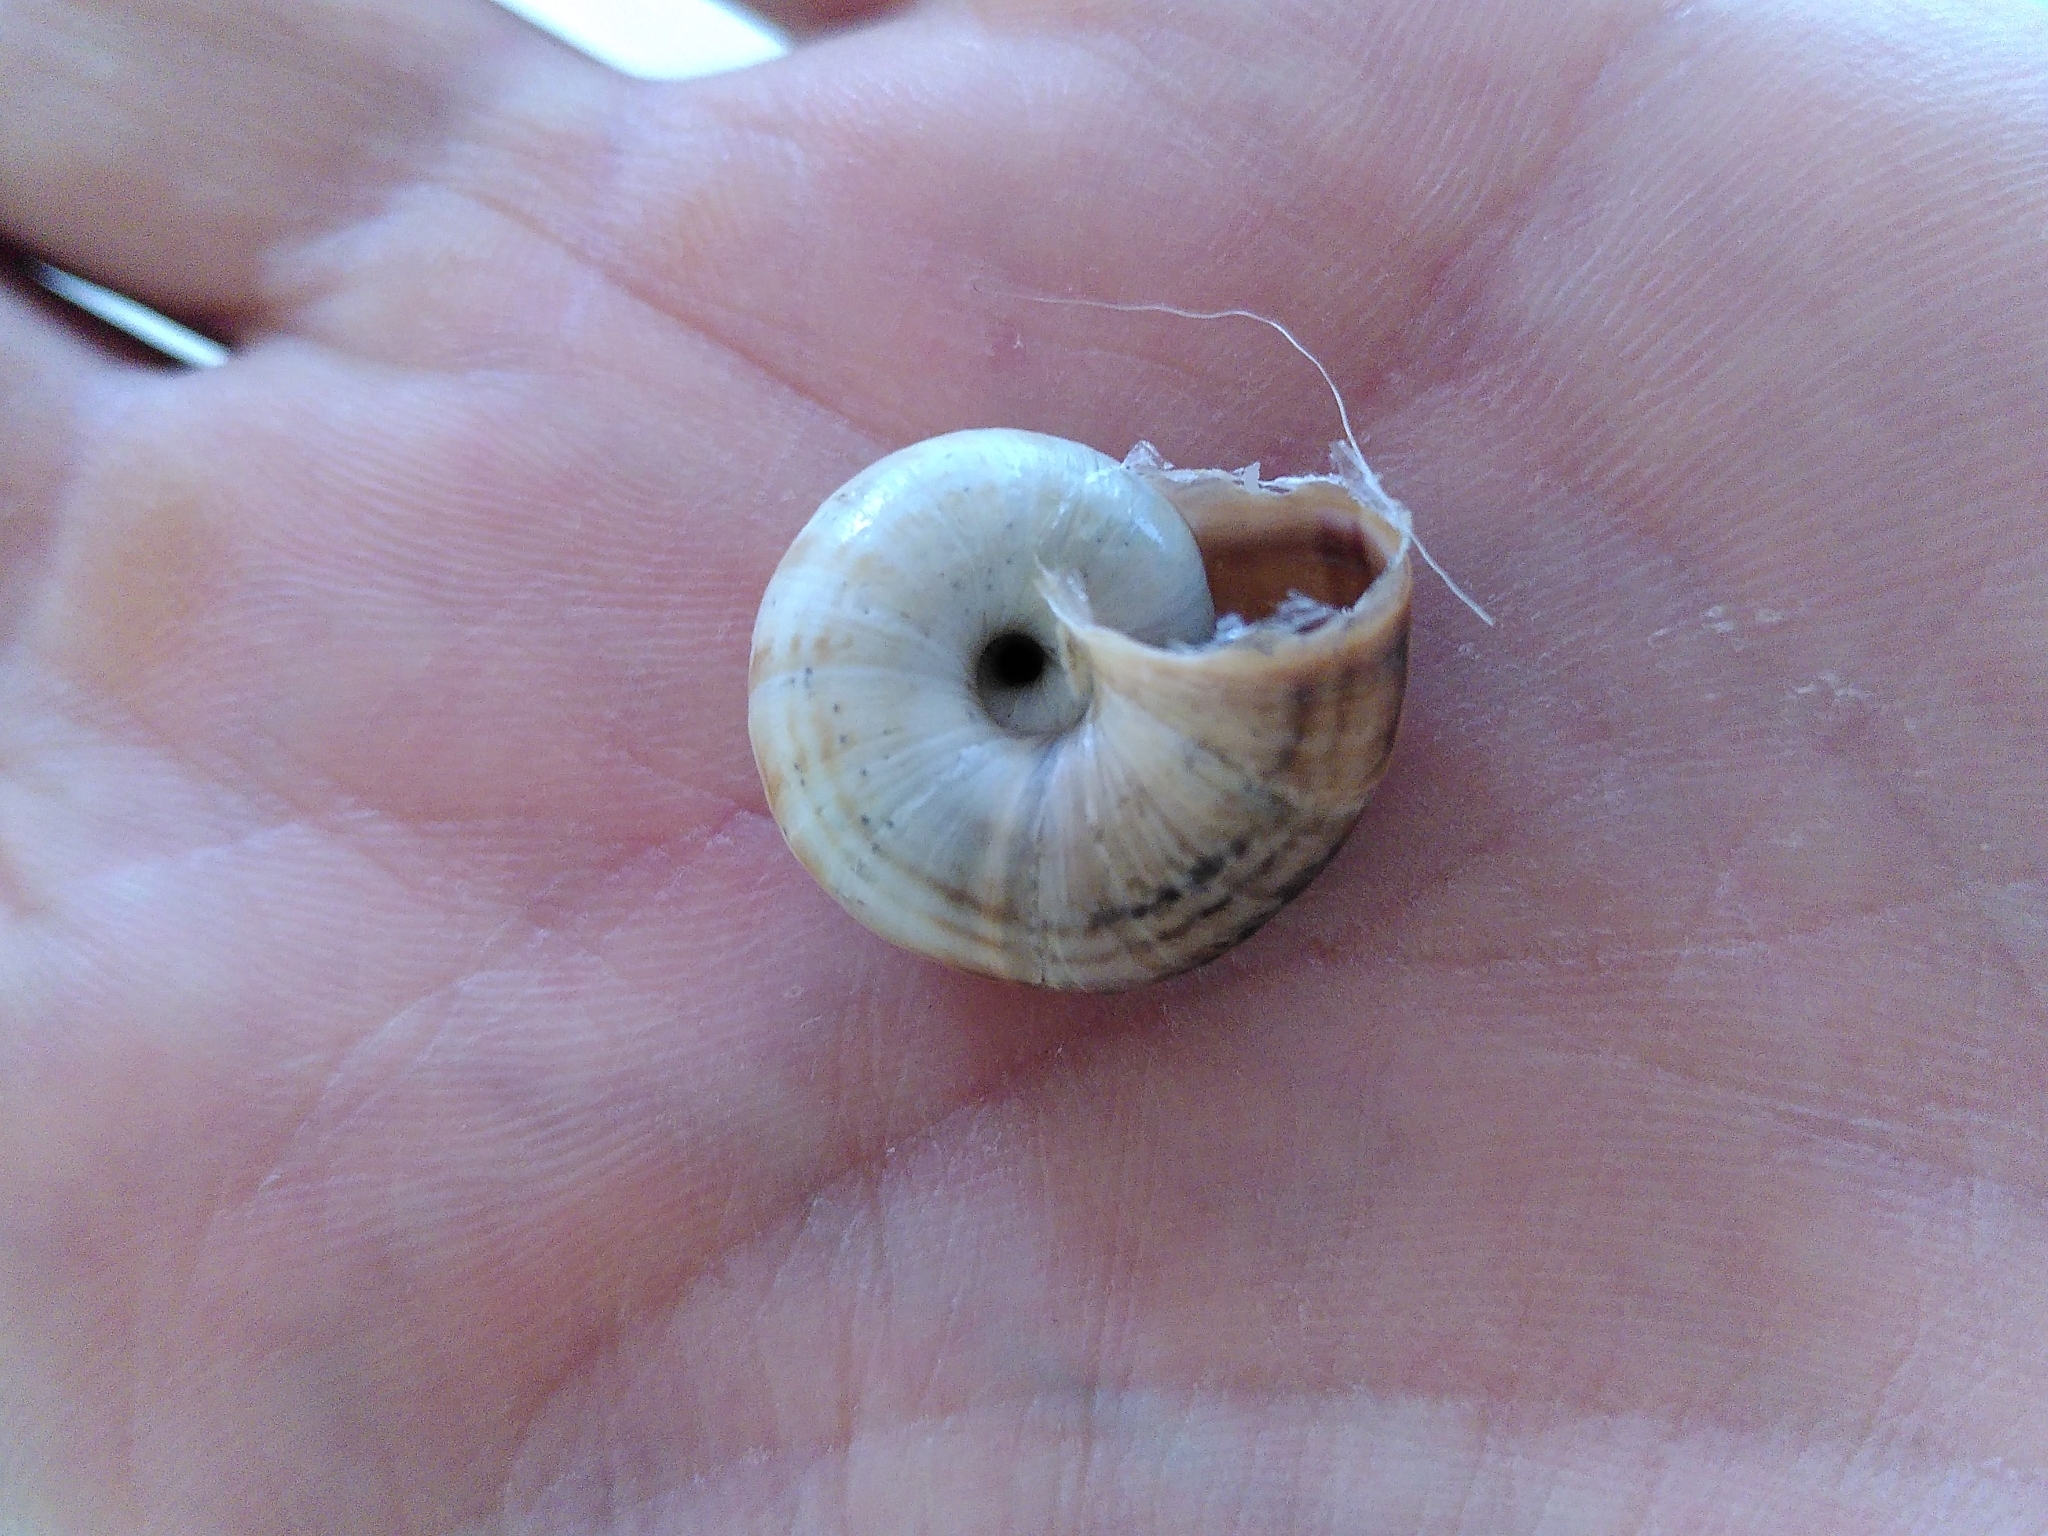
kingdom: Animalia
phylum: Mollusca
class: Gastropoda
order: Stylommatophora
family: Geomitridae
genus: Cernuella
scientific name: Cernuella neglecta
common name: Neglected dune snail
